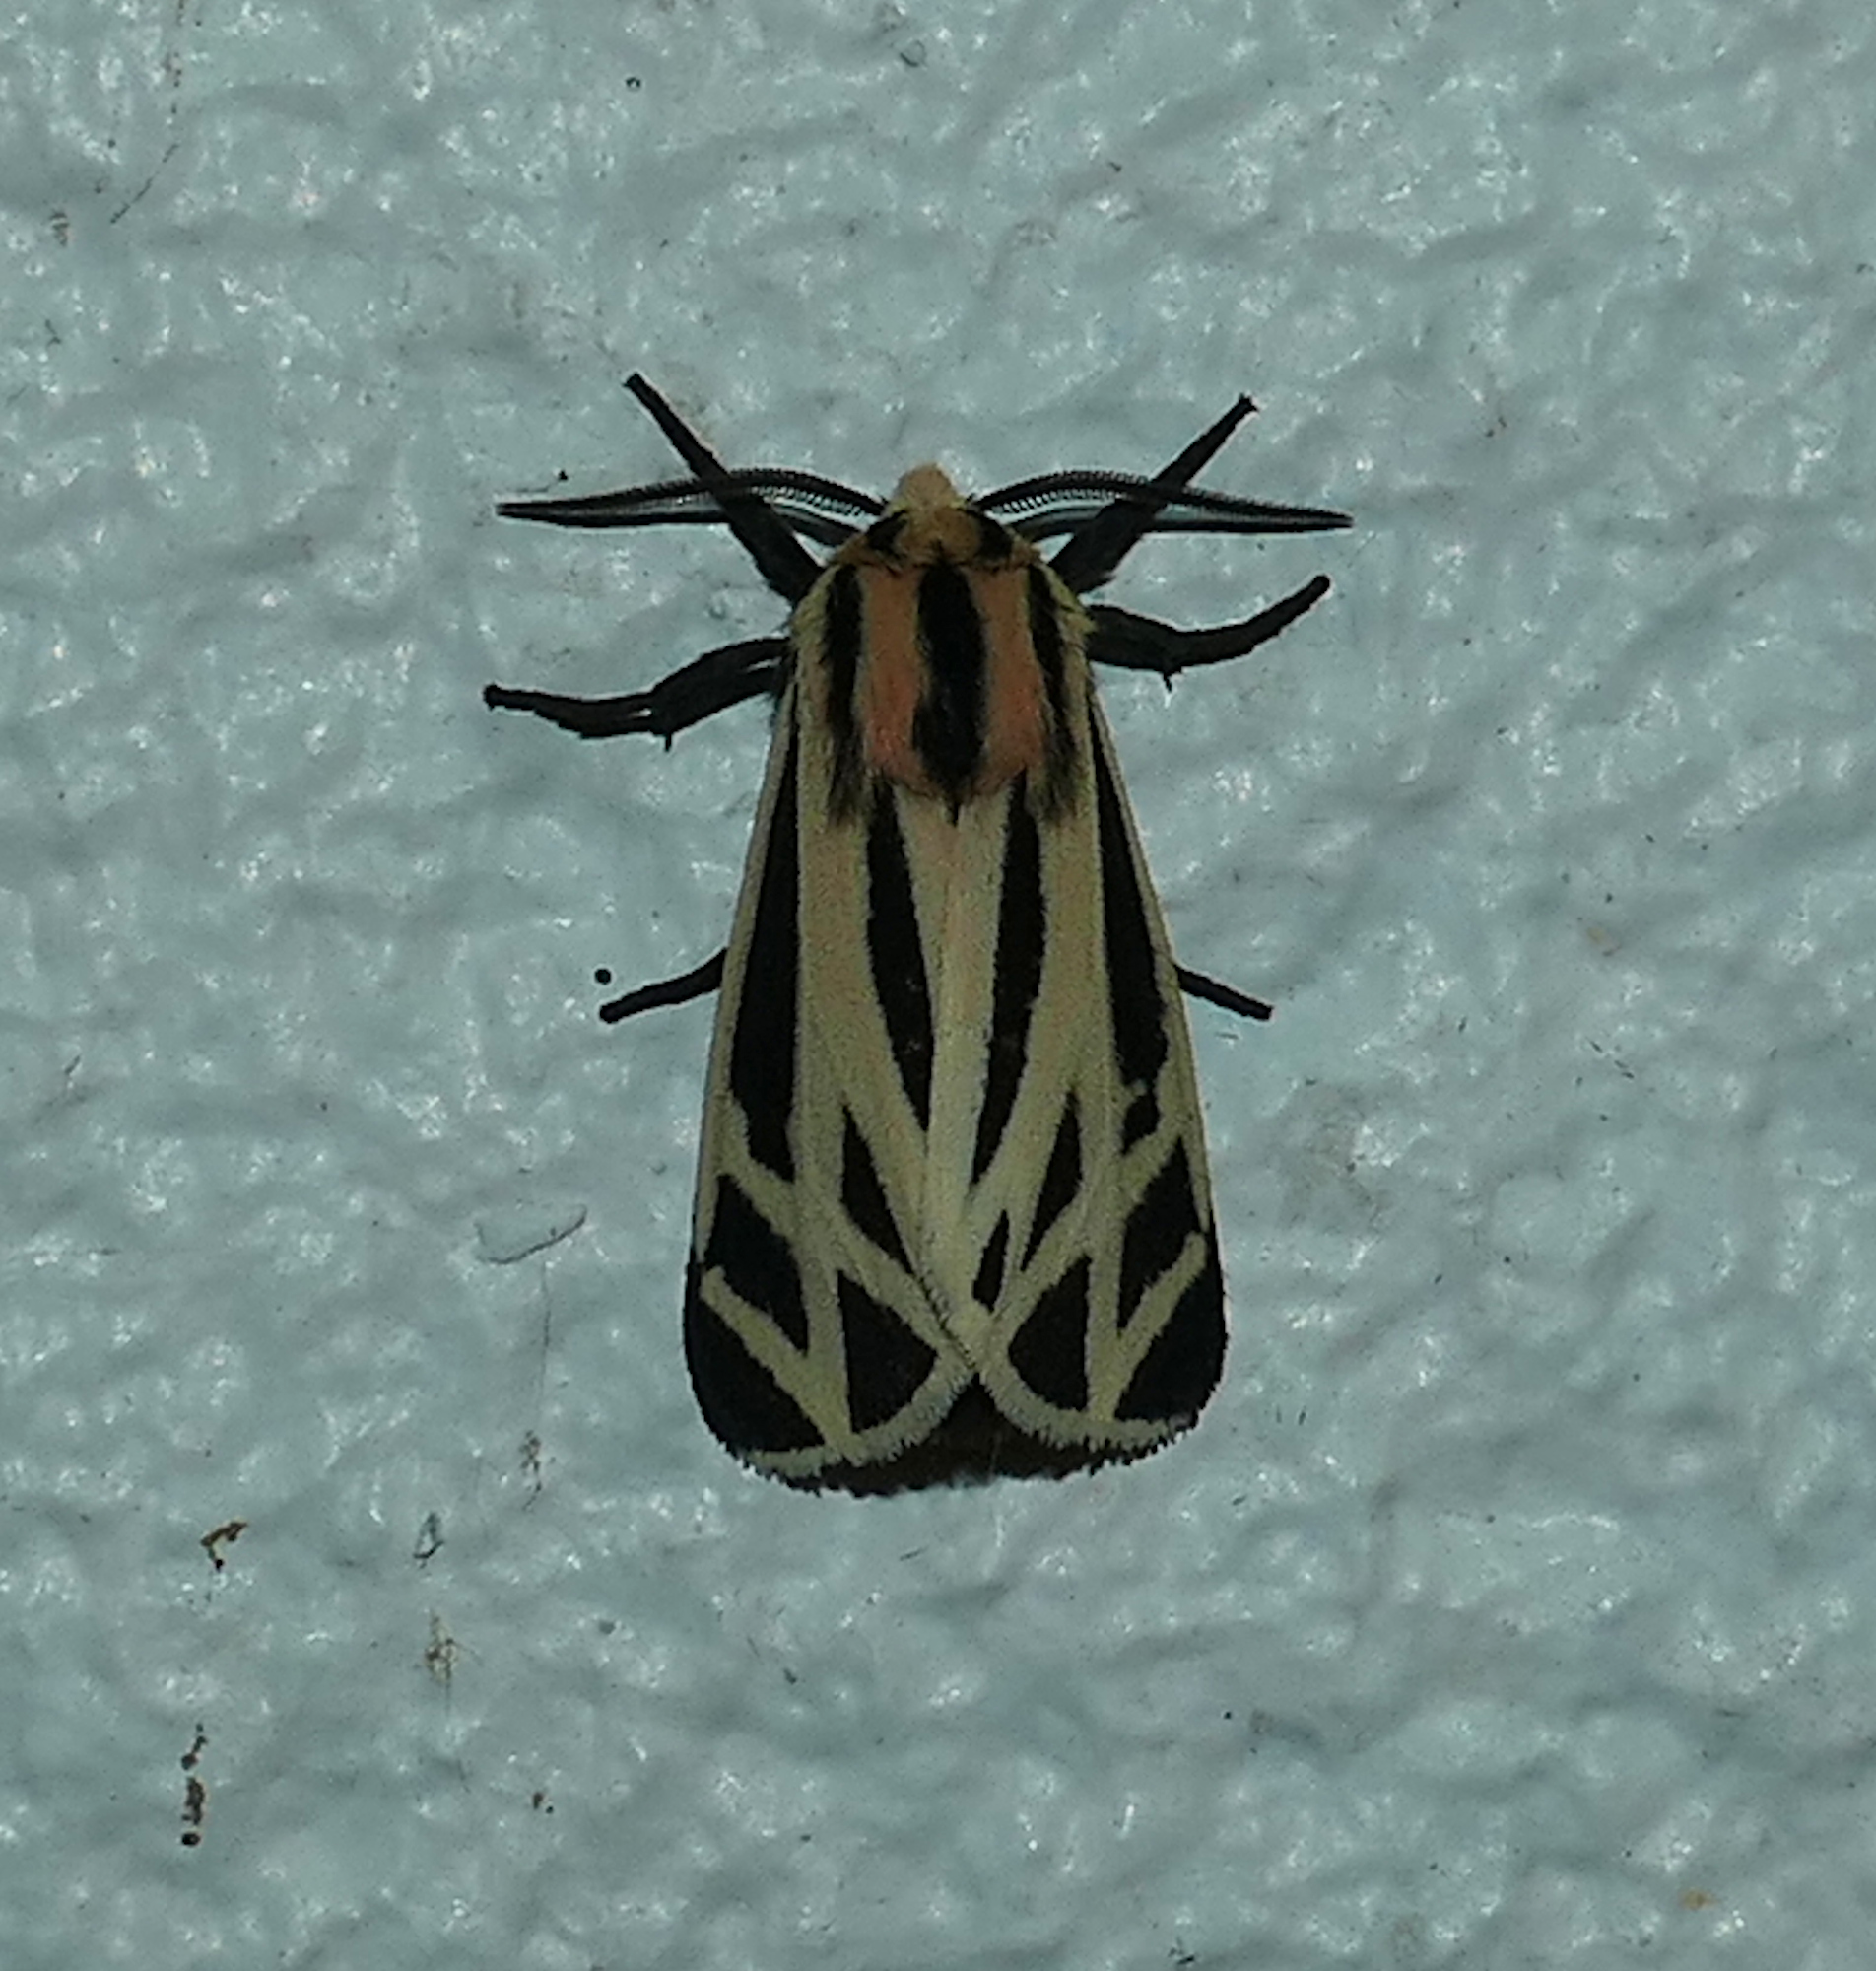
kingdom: Animalia
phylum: Arthropoda
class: Insecta
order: Lepidoptera
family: Erebidae
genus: Apantesis
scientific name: Apantesis phalerata
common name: Harnessed tiger moth
